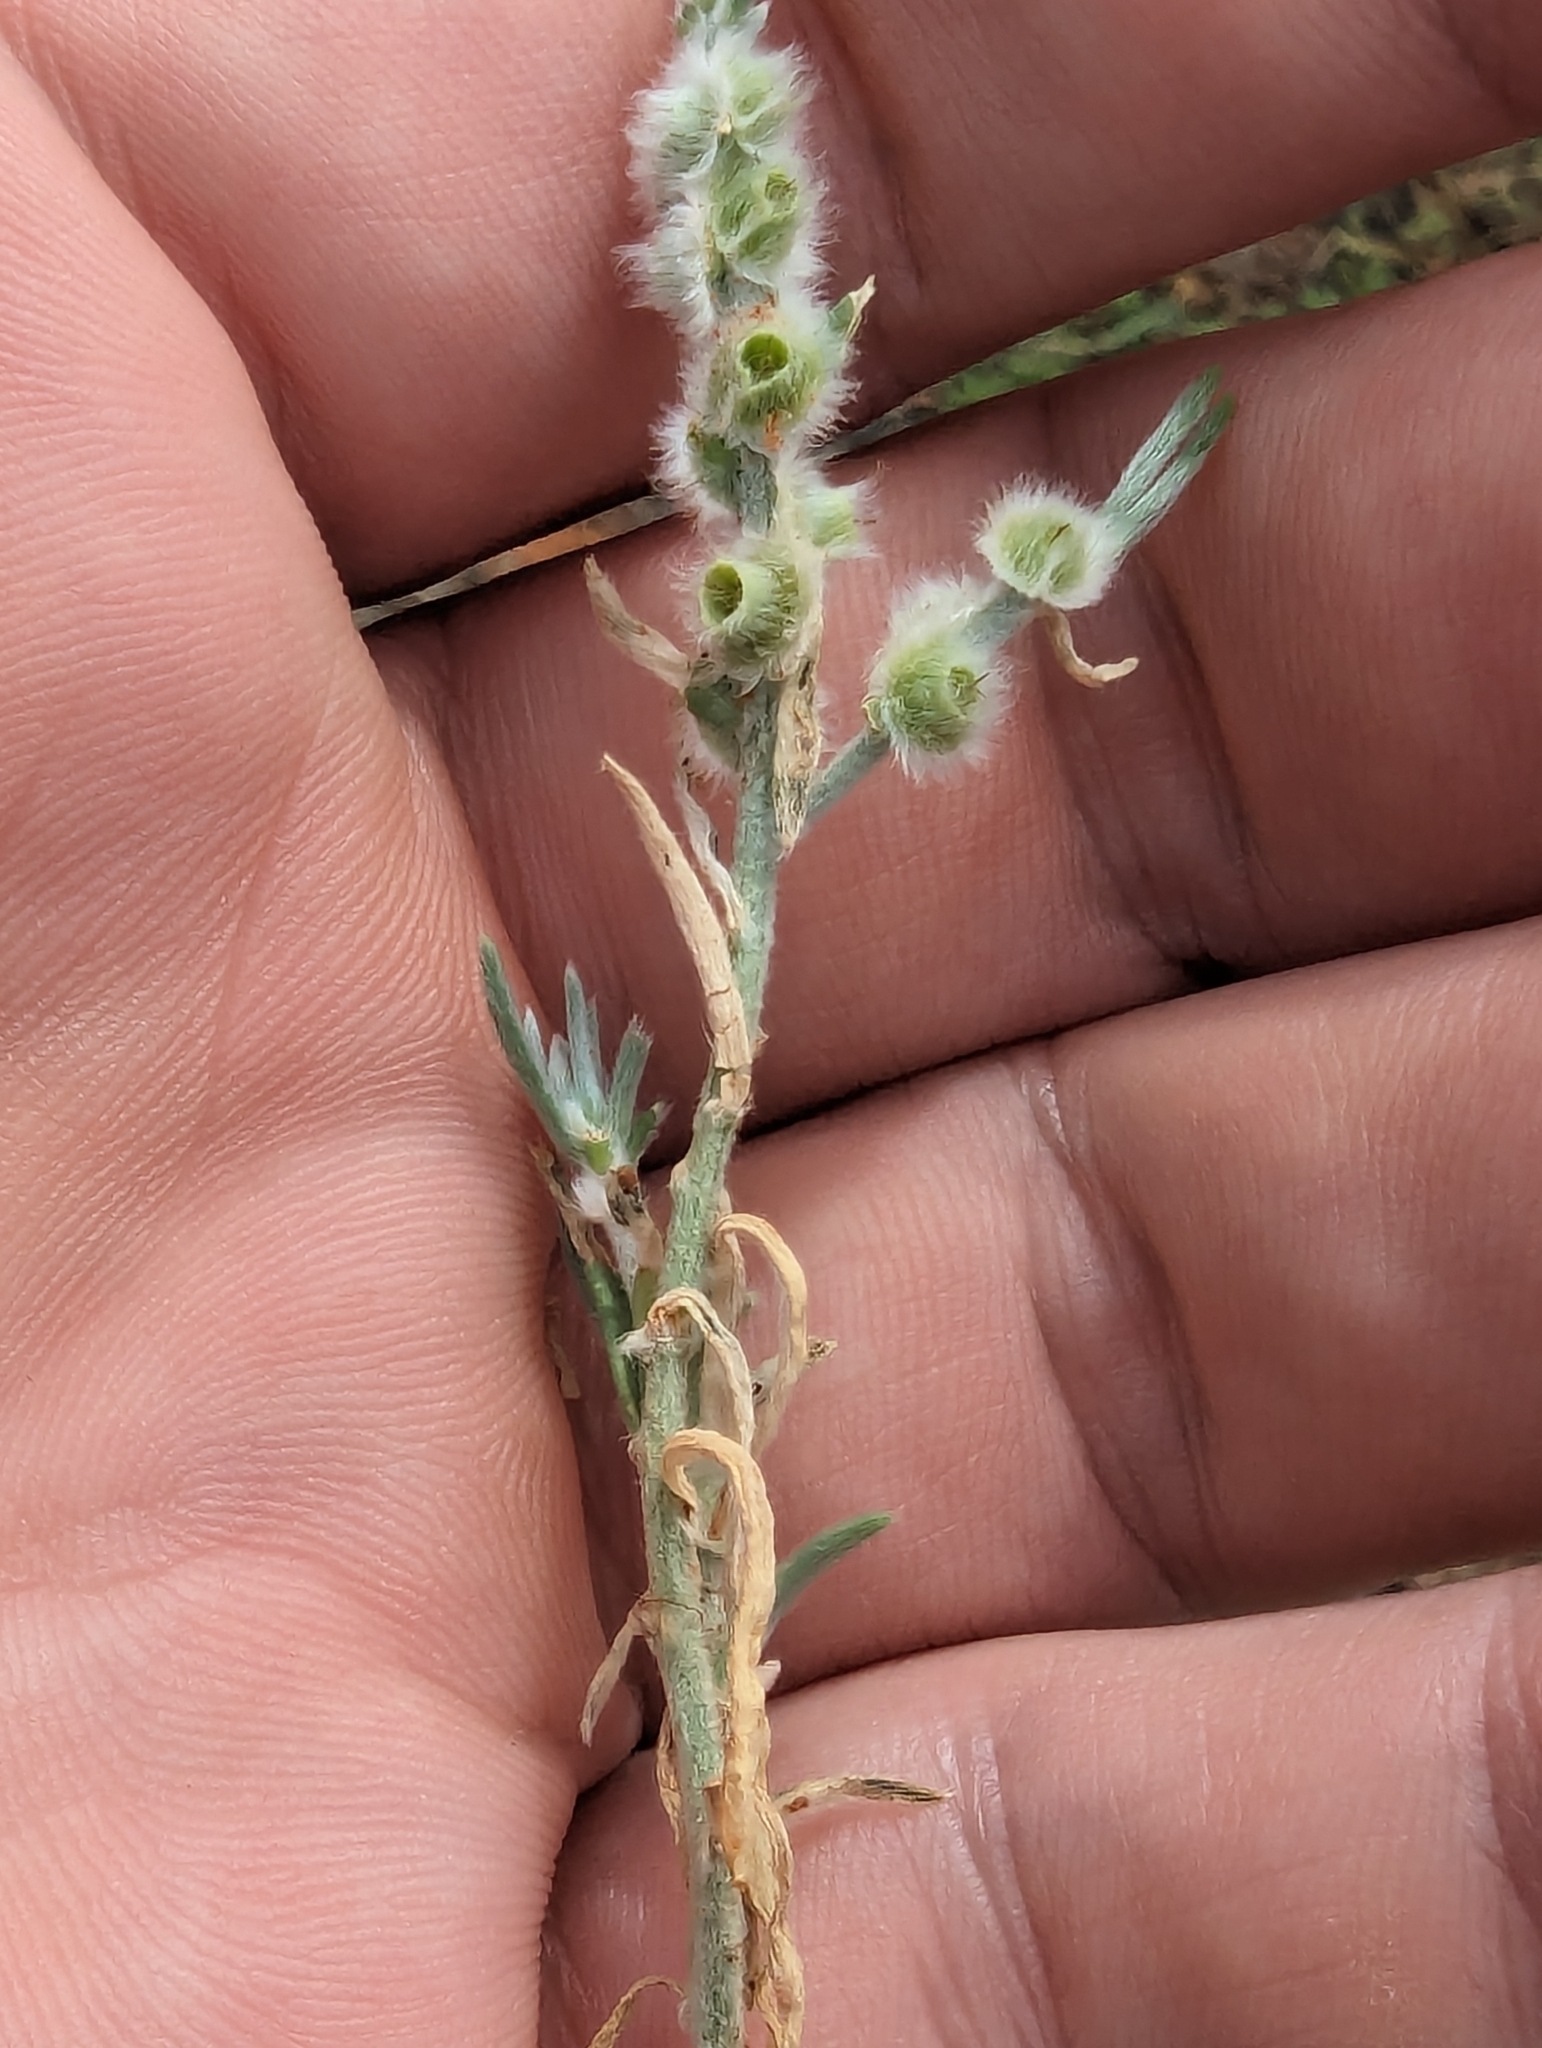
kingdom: Plantae
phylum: Tracheophyta
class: Magnoliopsida
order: Caryophyllales
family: Amaranthaceae
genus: Maireana
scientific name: Maireana coronata
